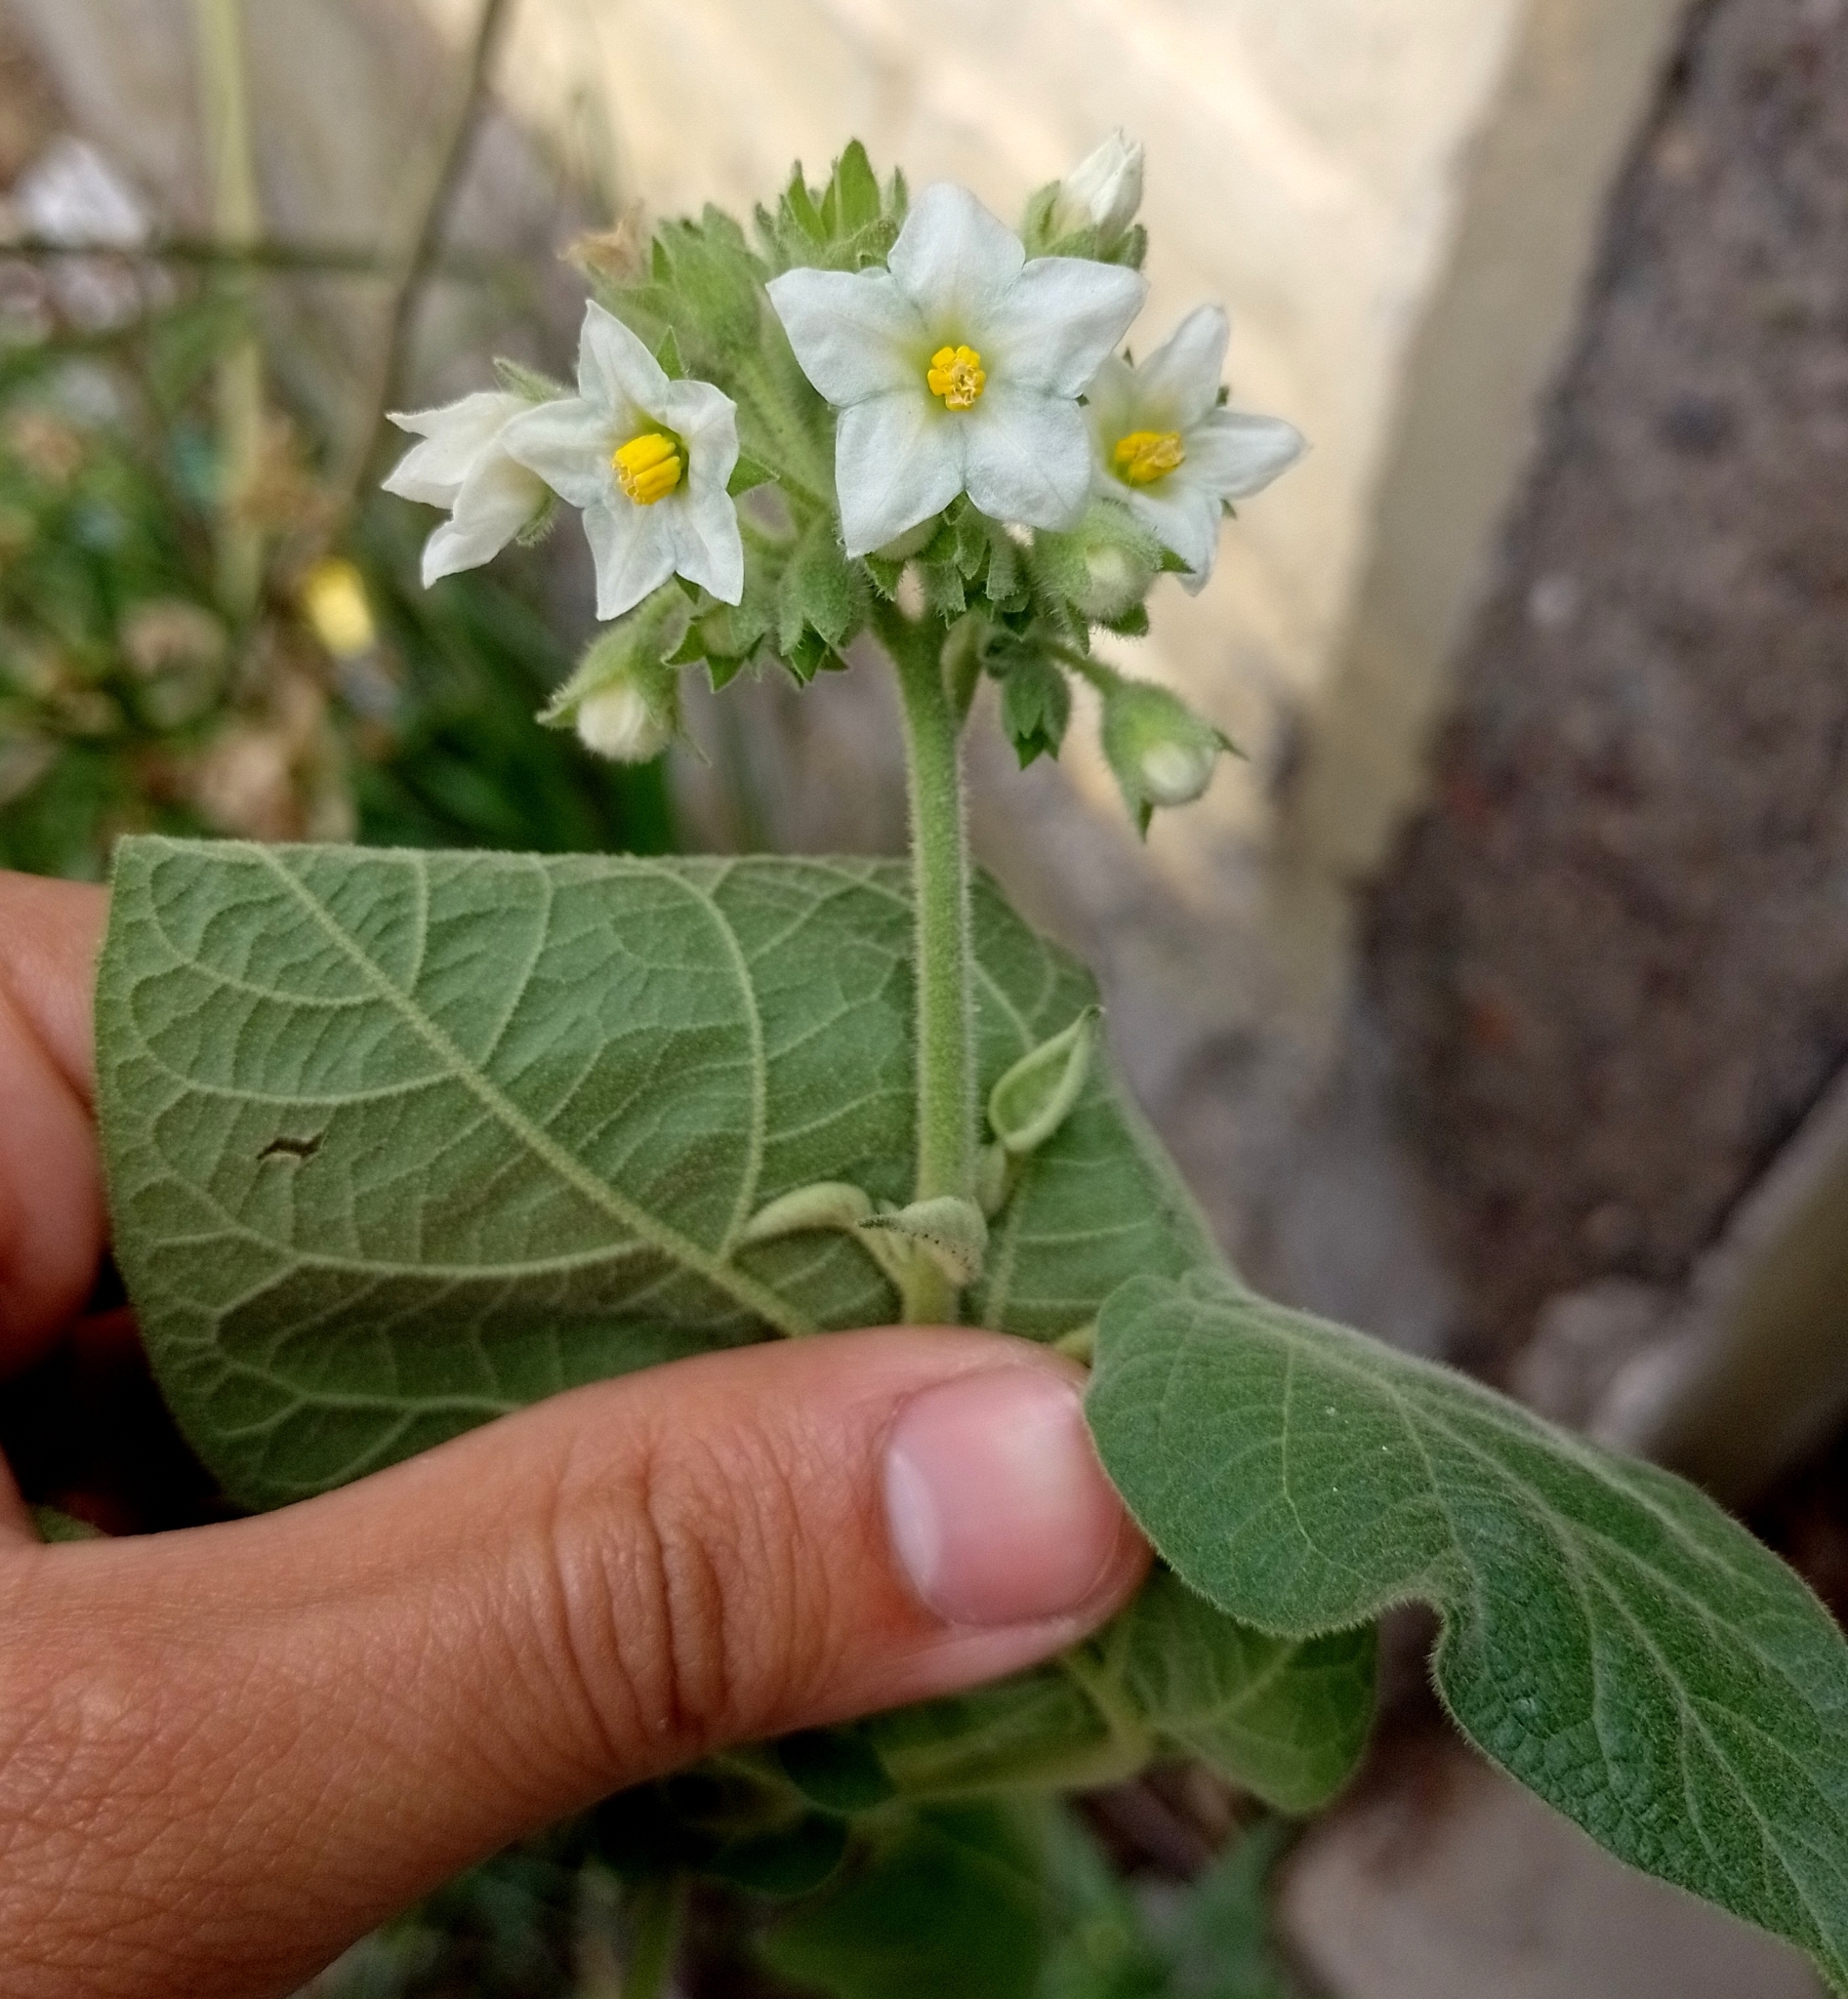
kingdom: Plantae
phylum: Tracheophyta
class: Magnoliopsida
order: Solanales
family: Solanaceae
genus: Solanum
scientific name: Solanum abutiloides
